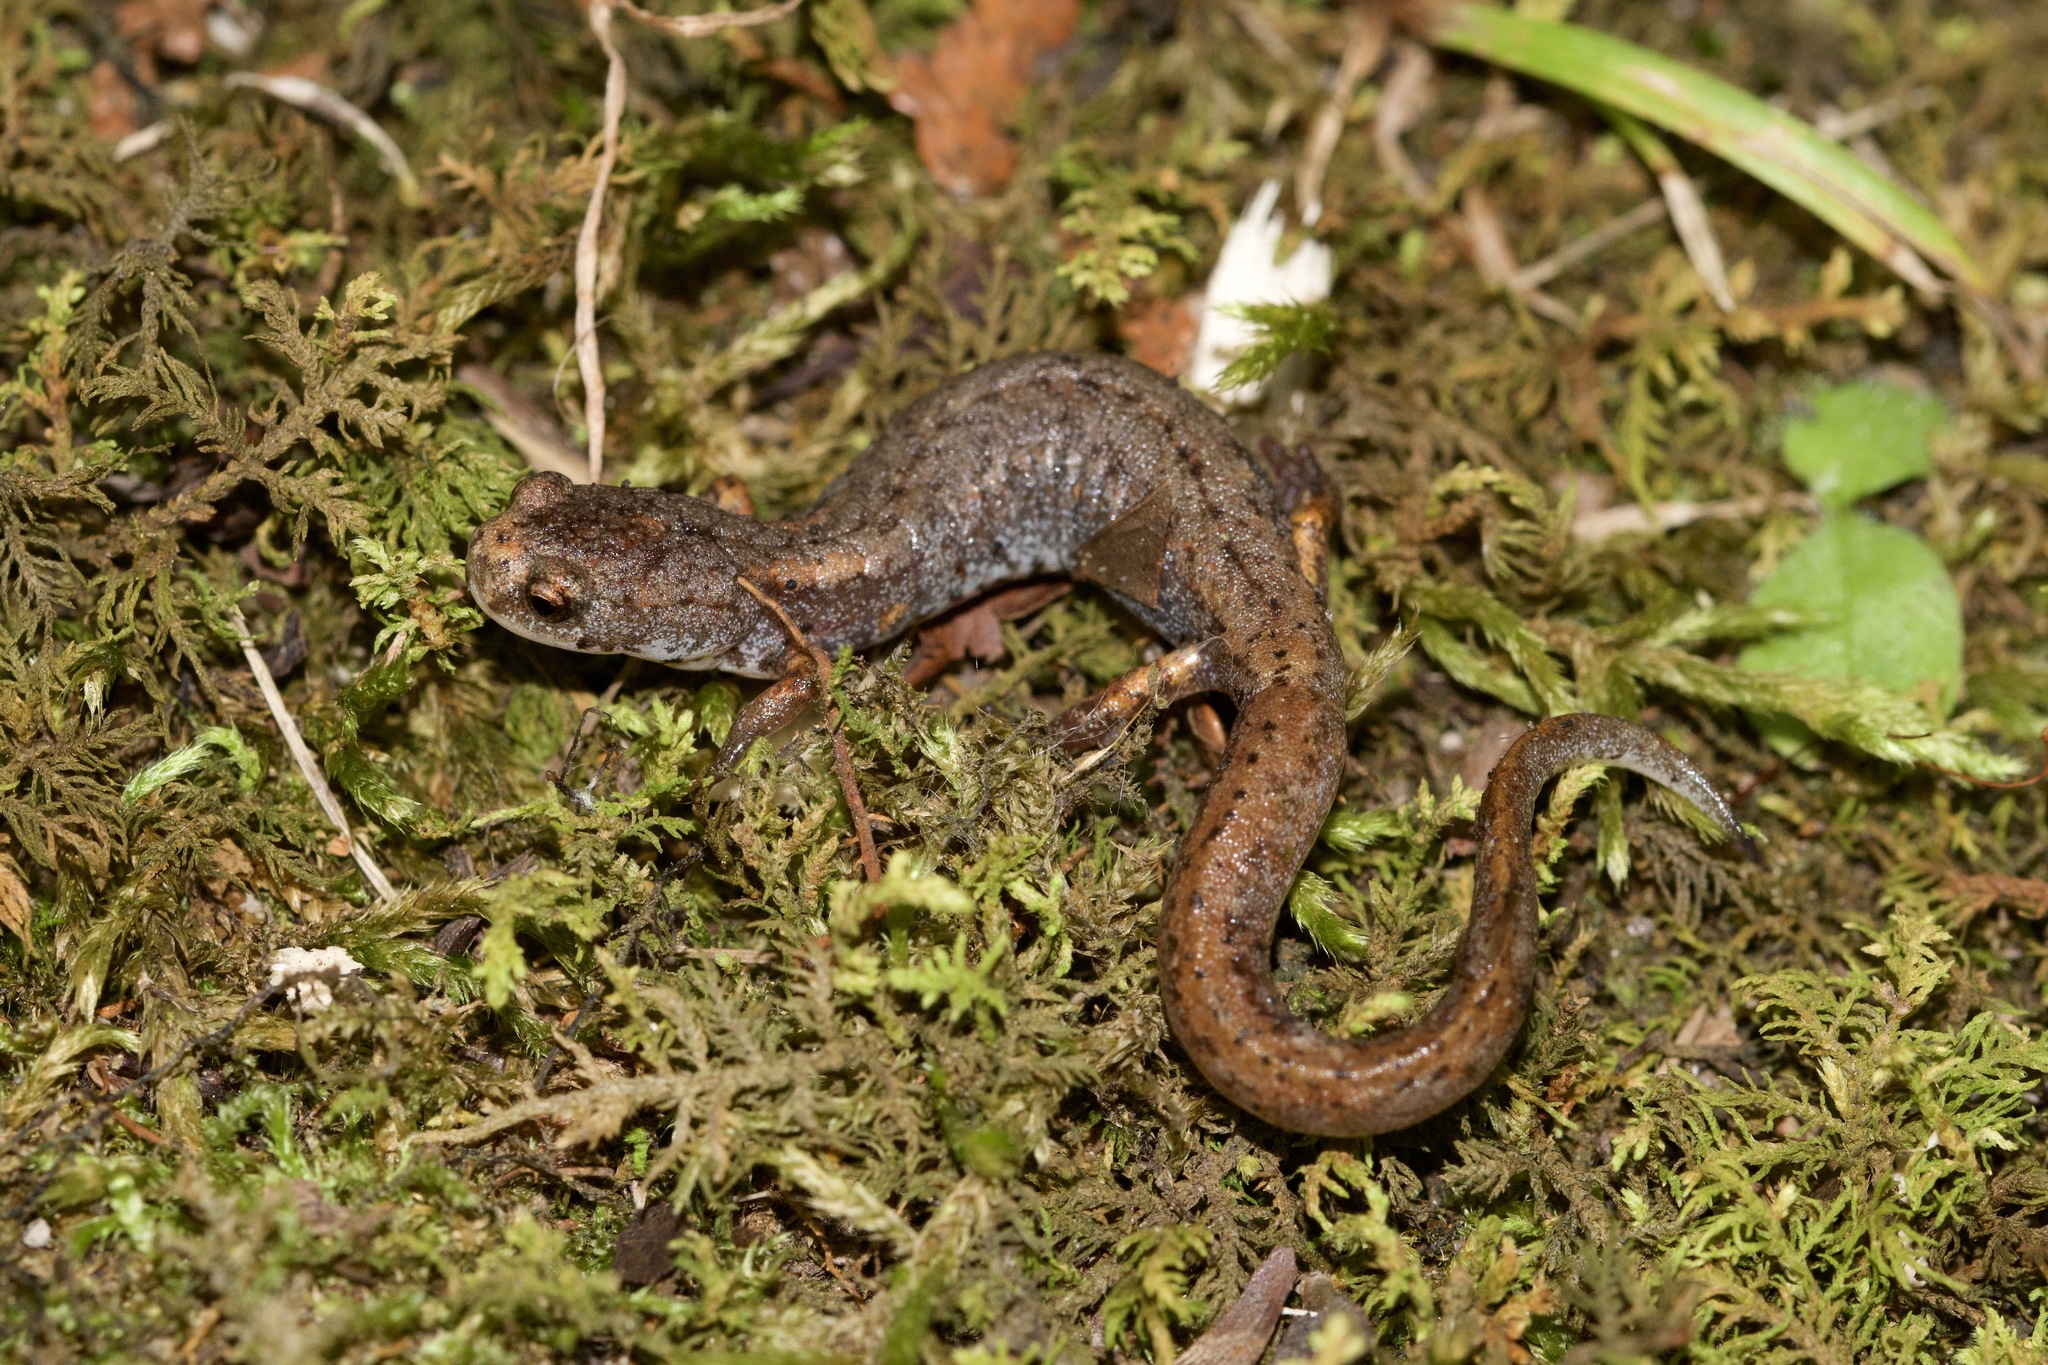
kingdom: Animalia
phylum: Chordata
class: Amphibia
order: Caudata
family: Plethodontidae
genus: Hemidactylium
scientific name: Hemidactylium scutatum
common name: Four-toed salamander
